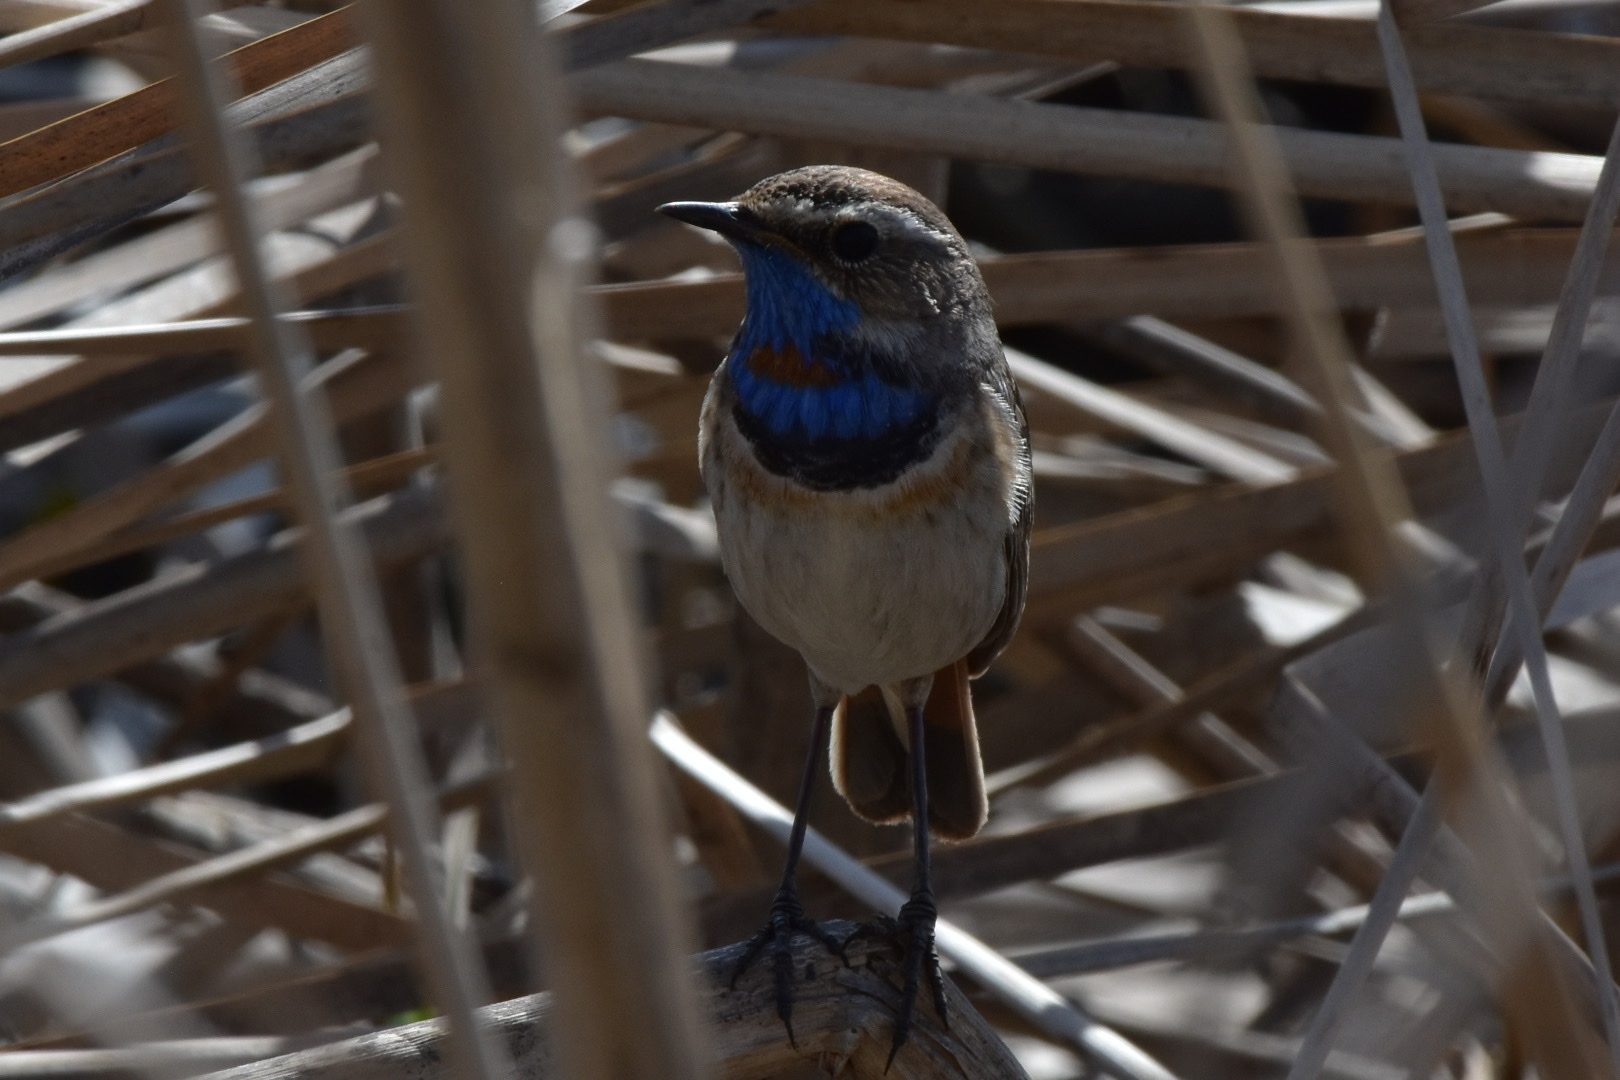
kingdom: Animalia
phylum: Chordata
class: Aves
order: Passeriformes
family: Muscicapidae
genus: Luscinia
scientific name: Luscinia svecica
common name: Bluethroat
